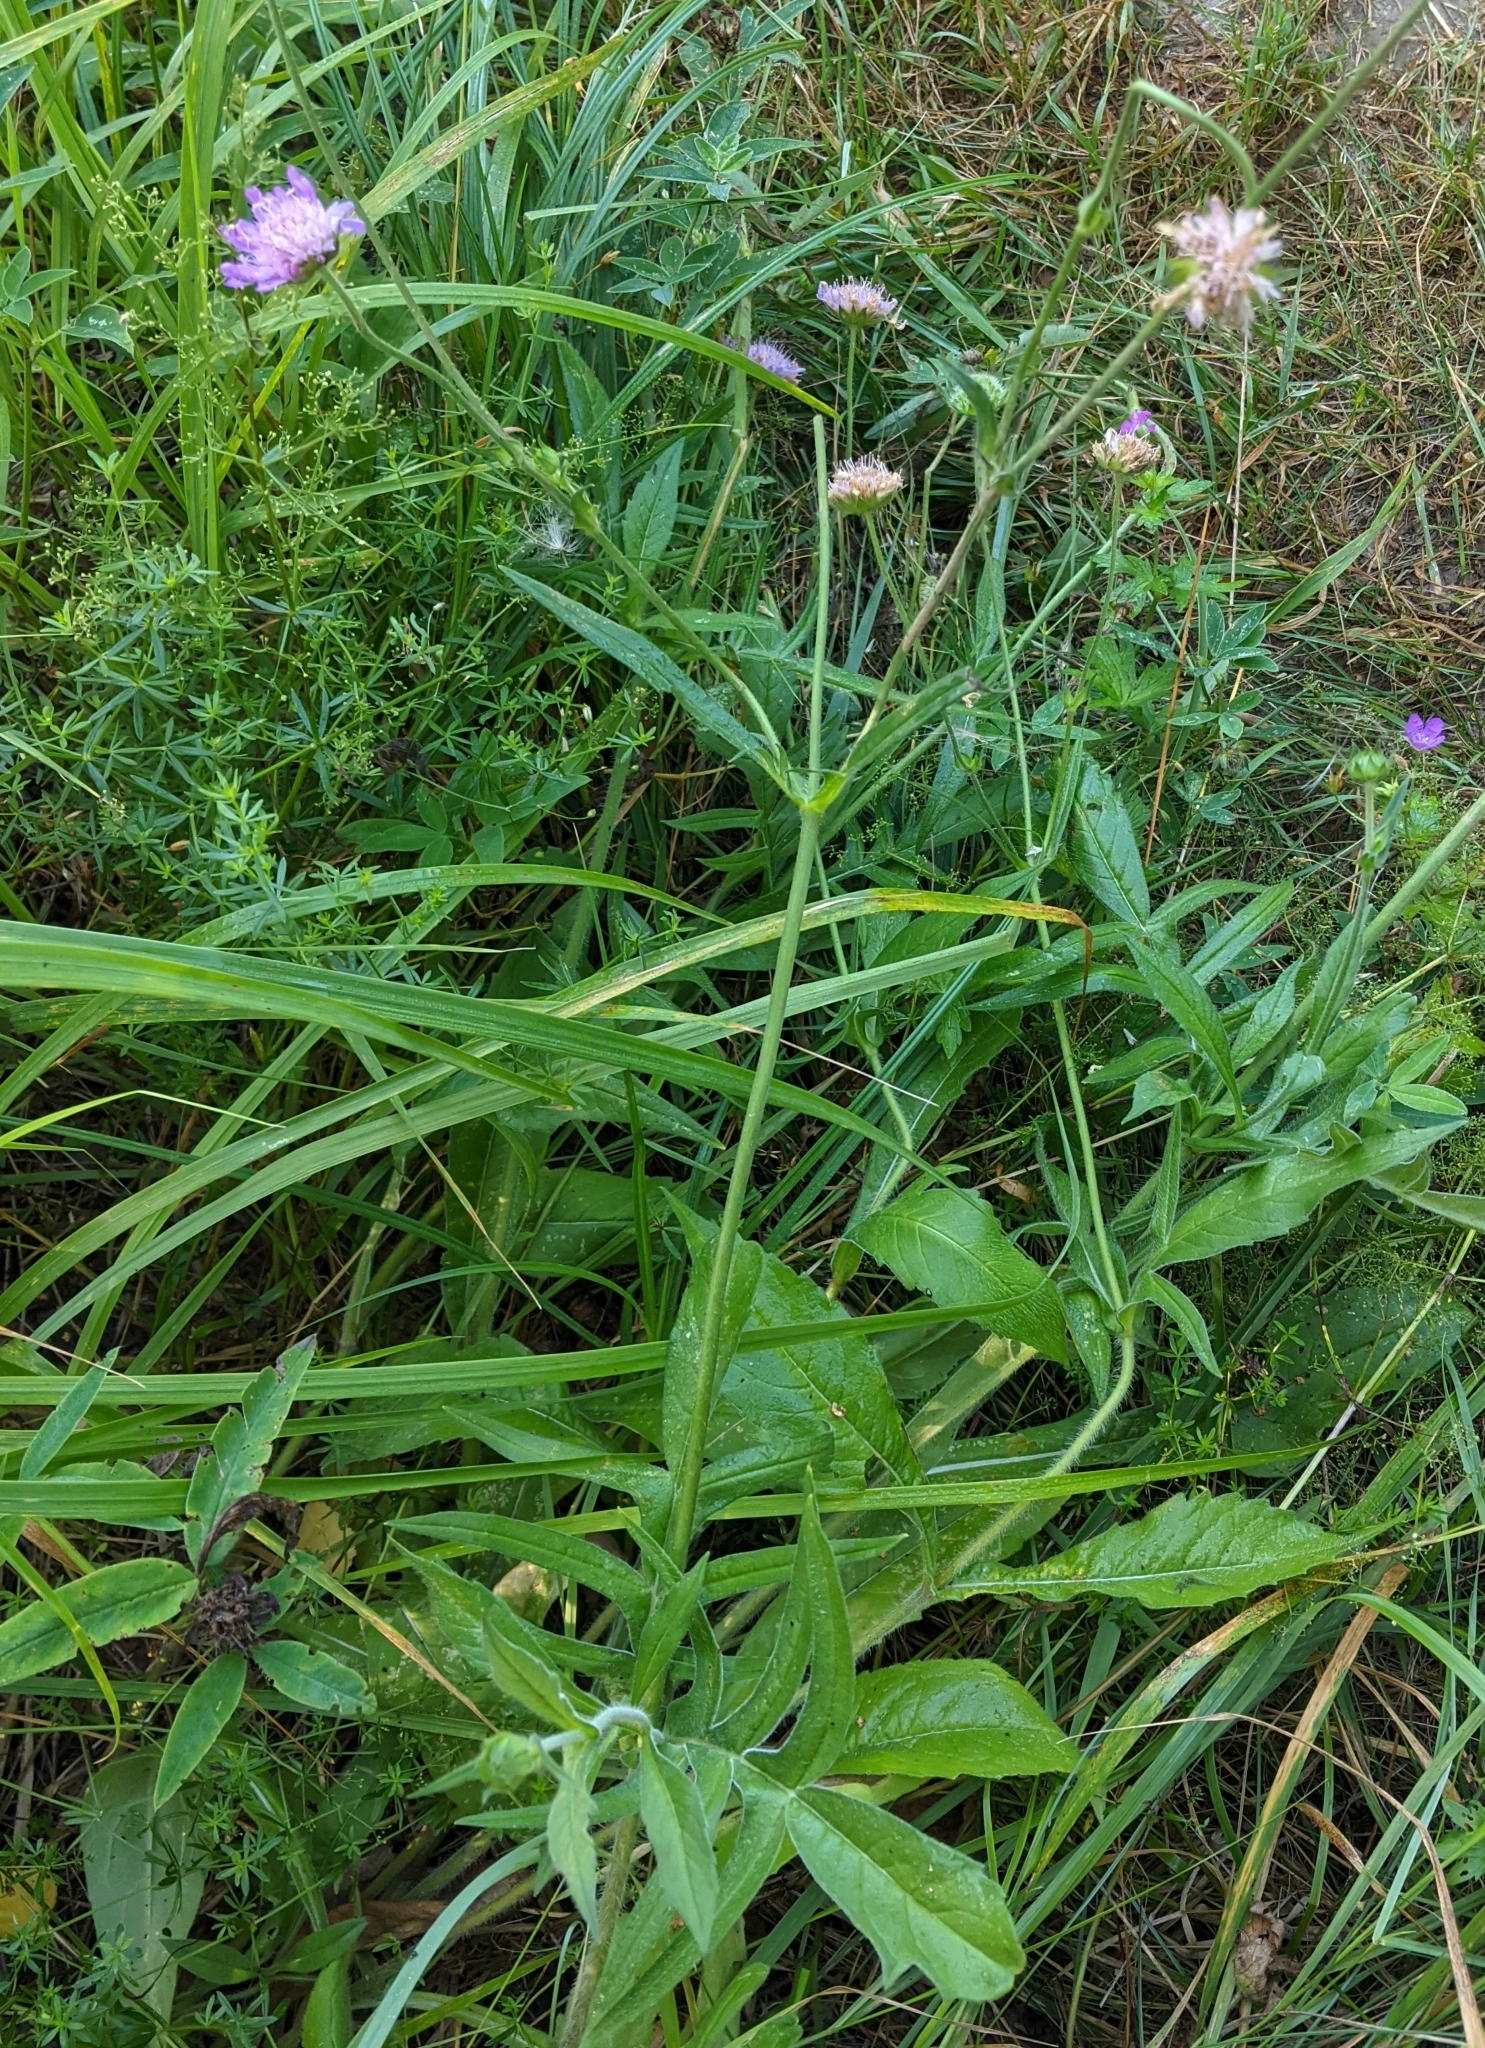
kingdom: Plantae
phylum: Tracheophyta
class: Magnoliopsida
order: Dipsacales
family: Caprifoliaceae
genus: Knautia
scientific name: Knautia arvensis
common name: Field scabiosa
